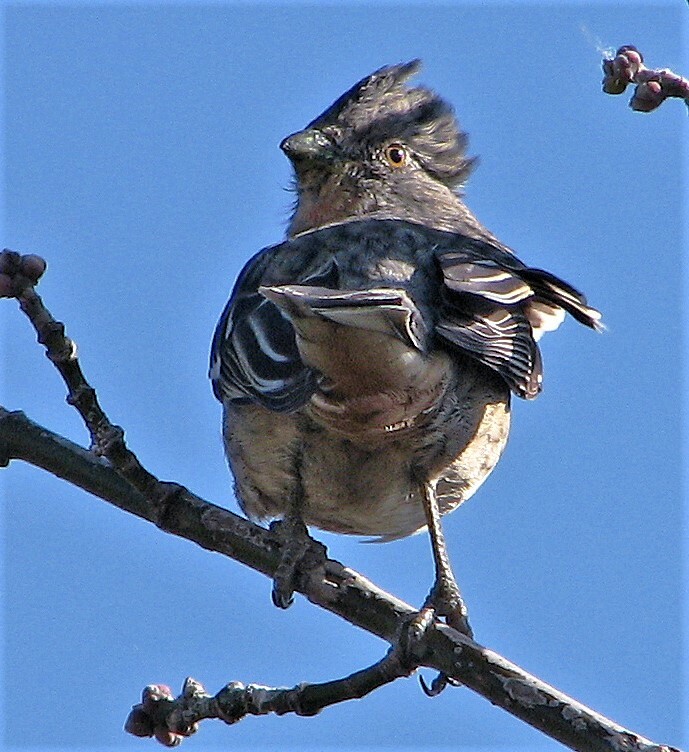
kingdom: Animalia
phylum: Chordata
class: Aves
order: Passeriformes
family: Cotingidae
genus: Phytotoma
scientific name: Phytotoma rutila
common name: White-tipped plantcutter
